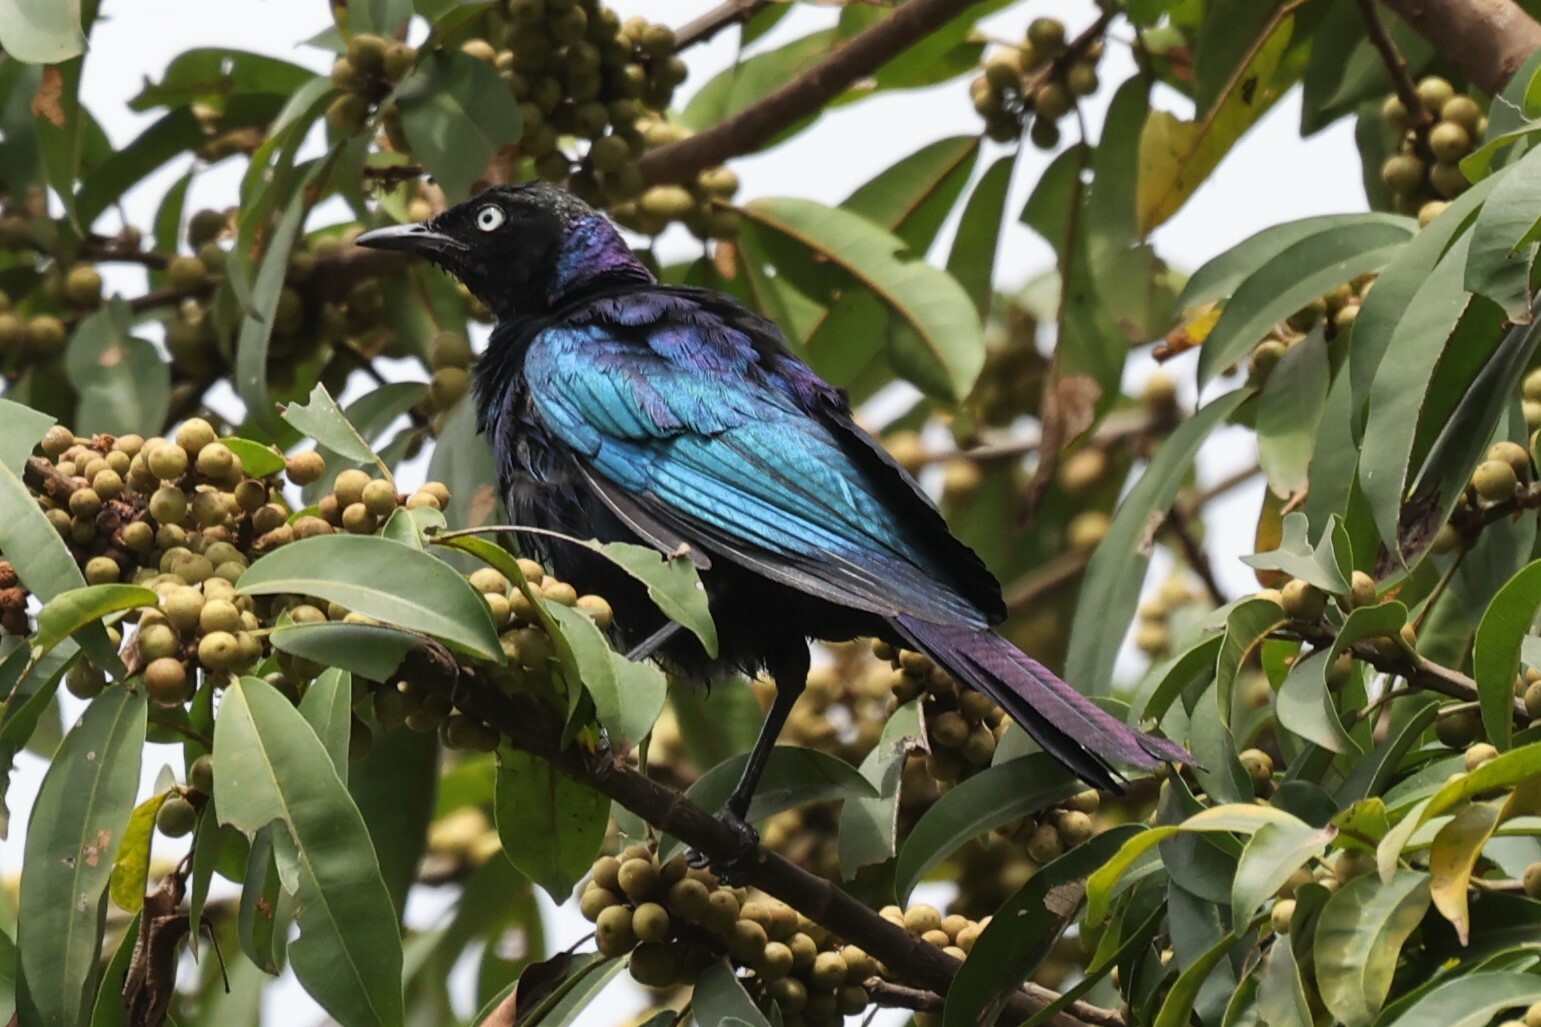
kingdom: Animalia
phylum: Chordata
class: Aves
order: Passeriformes
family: Sturnidae
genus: Lamprotornis
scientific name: Lamprotornis purpuroptera
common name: Rüppell's starling
